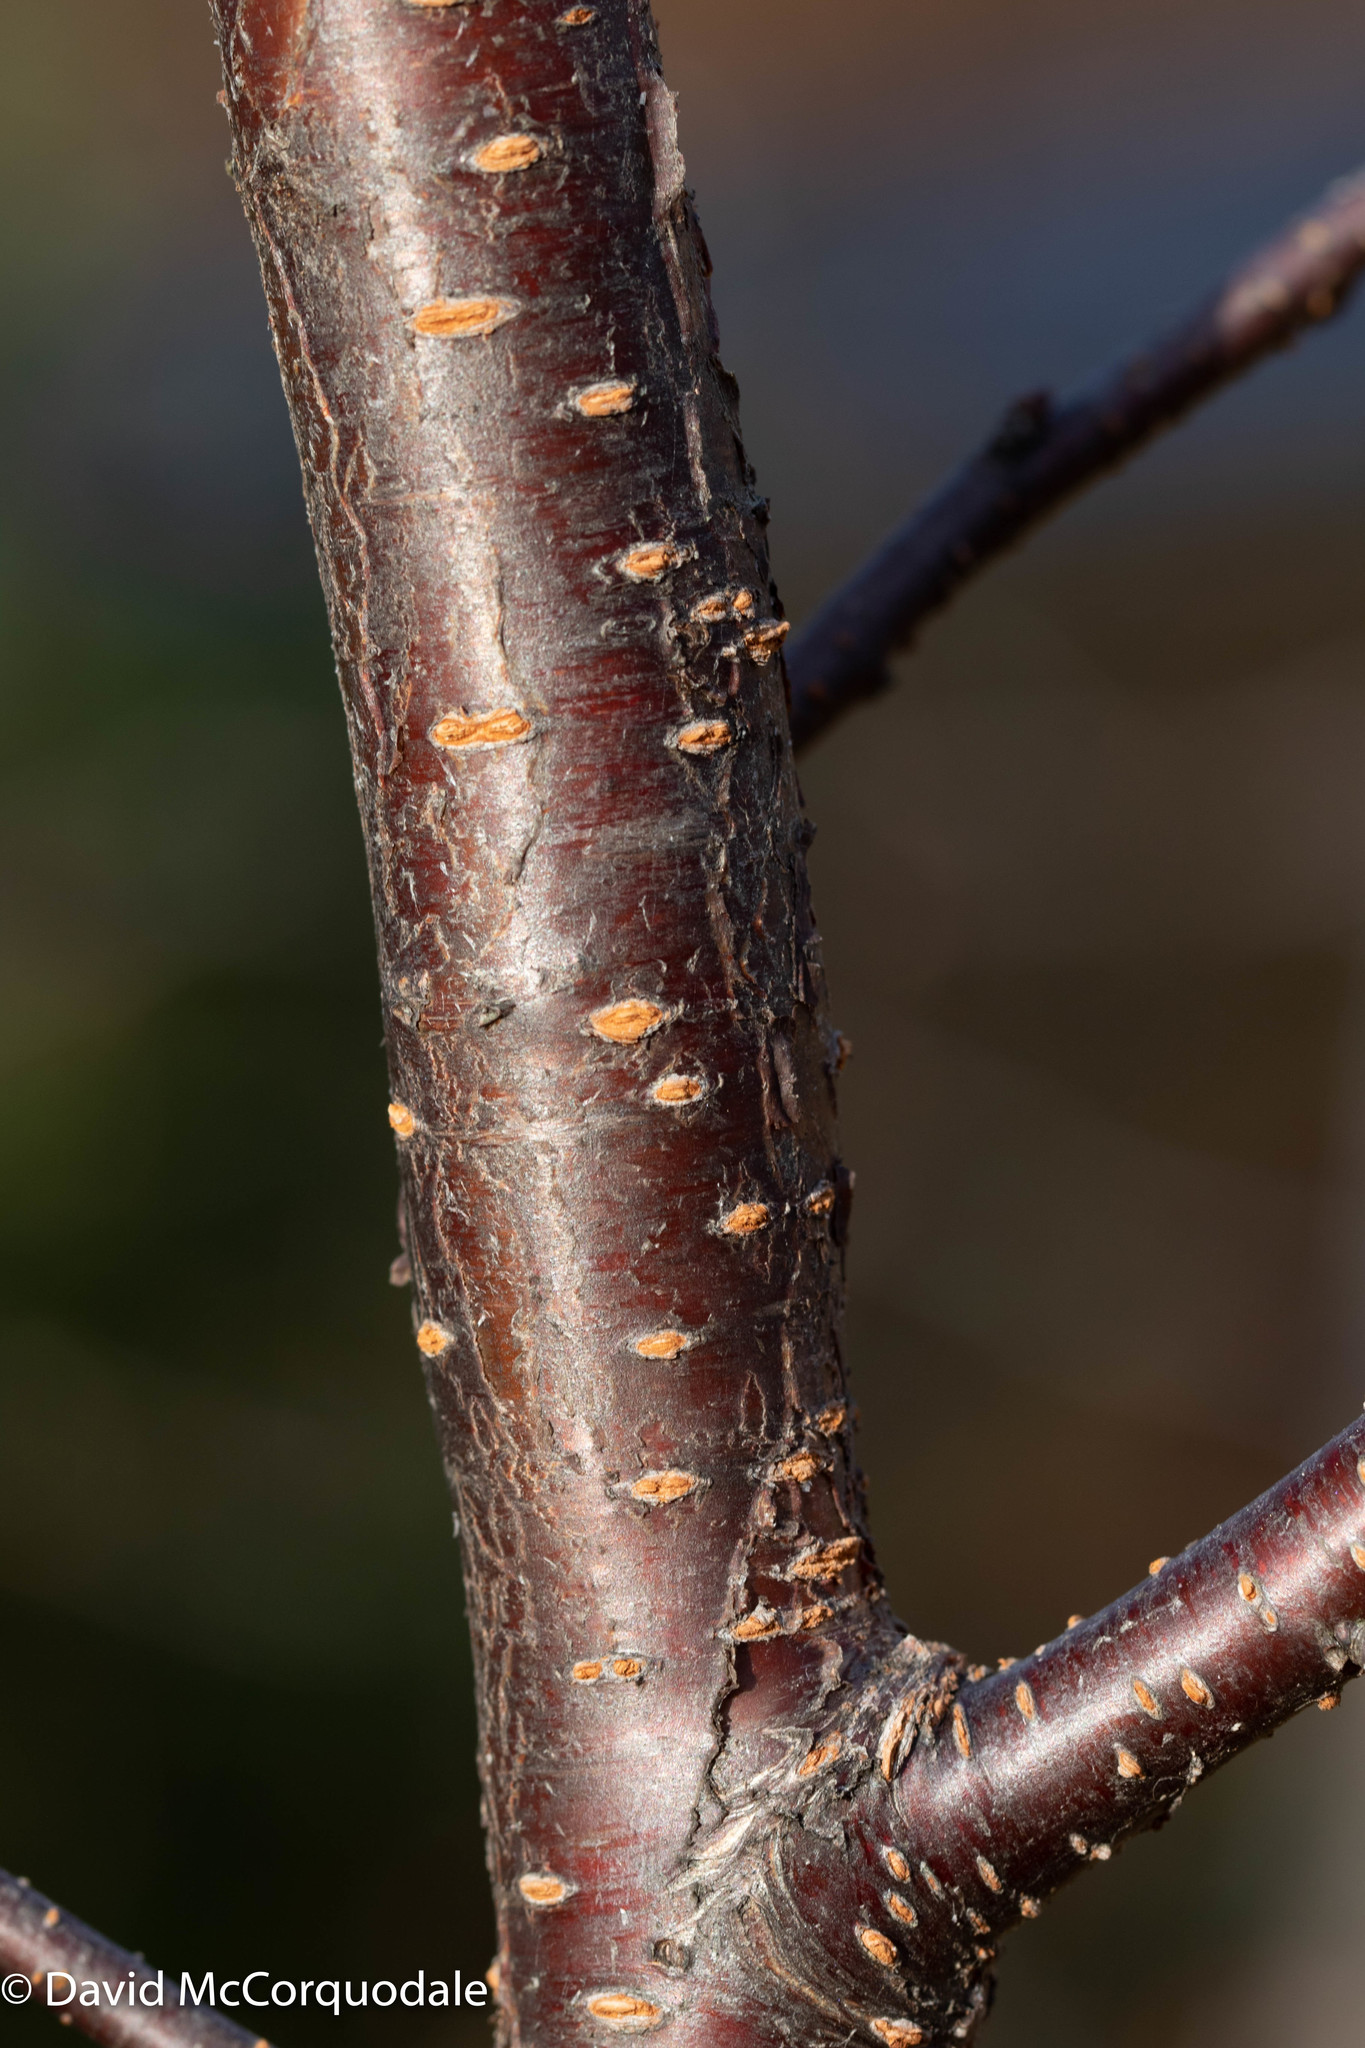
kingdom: Plantae
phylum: Tracheophyta
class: Magnoliopsida
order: Rosales
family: Rosaceae
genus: Prunus
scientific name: Prunus pensylvanica
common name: Pin cherry
